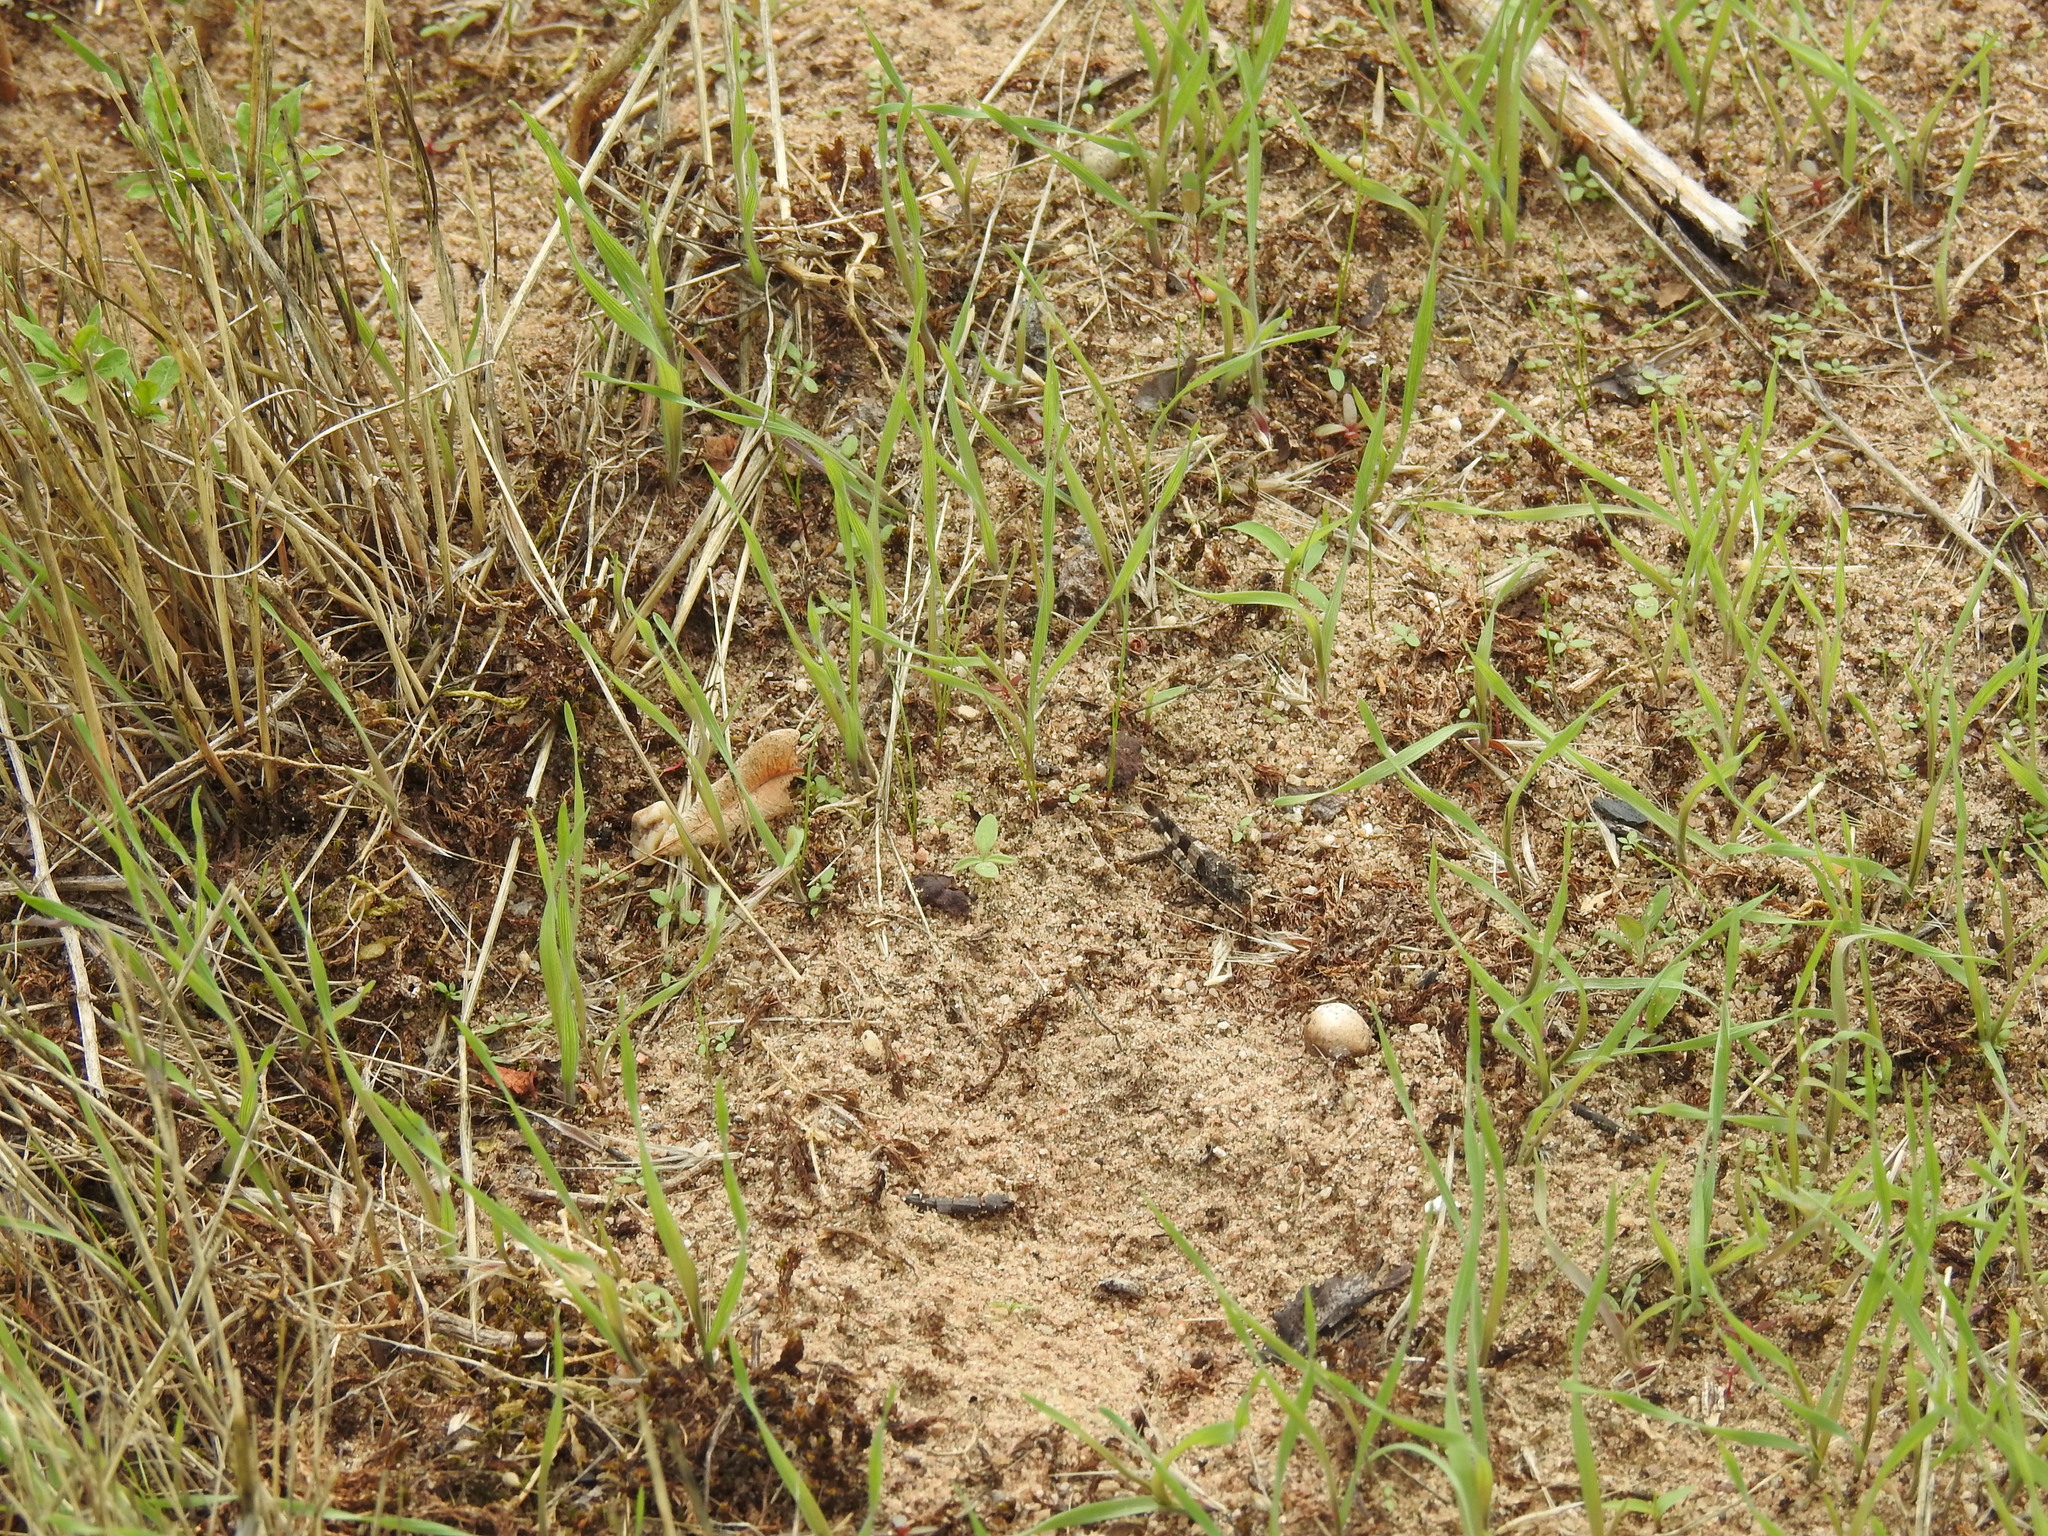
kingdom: Animalia
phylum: Arthropoda
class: Insecta
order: Orthoptera
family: Acrididae
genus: Oedipoda
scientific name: Oedipoda caerulescens
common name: Blue-winged grasshopper
